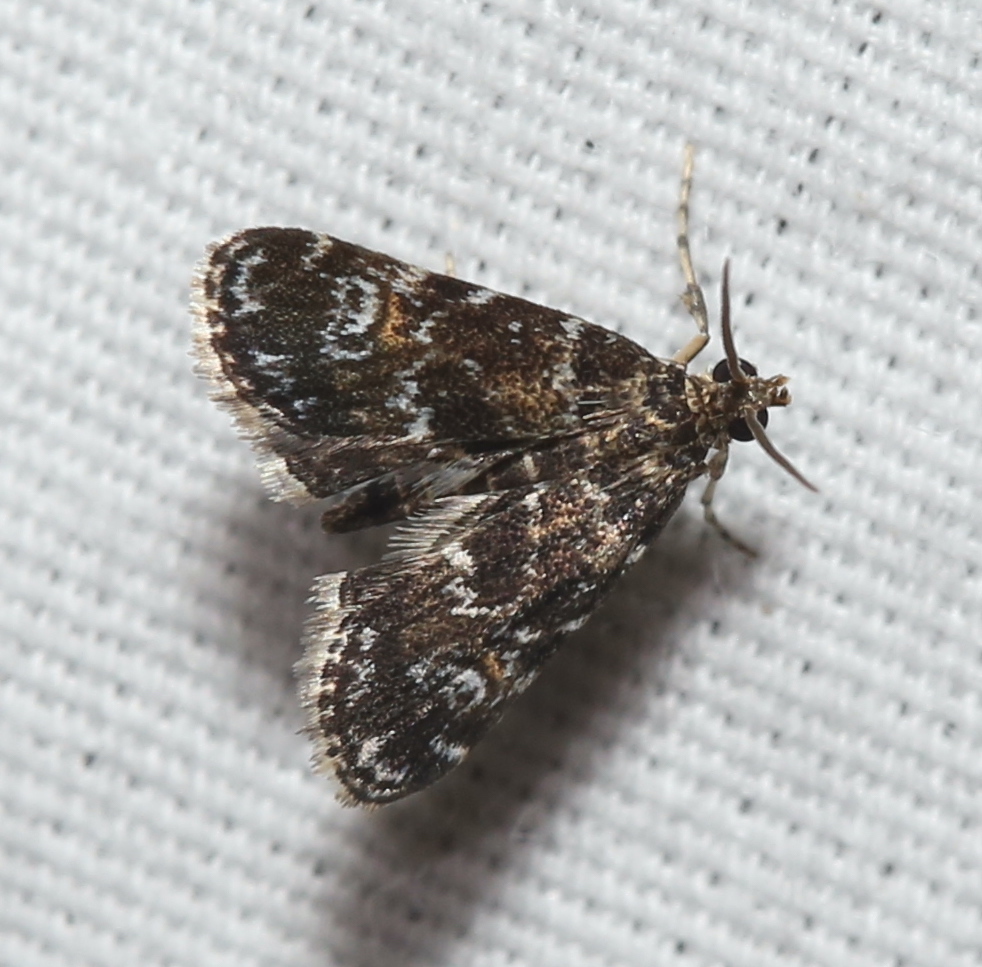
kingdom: Animalia
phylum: Arthropoda
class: Insecta
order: Lepidoptera
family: Crambidae
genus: Elophila
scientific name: Elophila obliteralis
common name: Waterlily leafcutter moth
